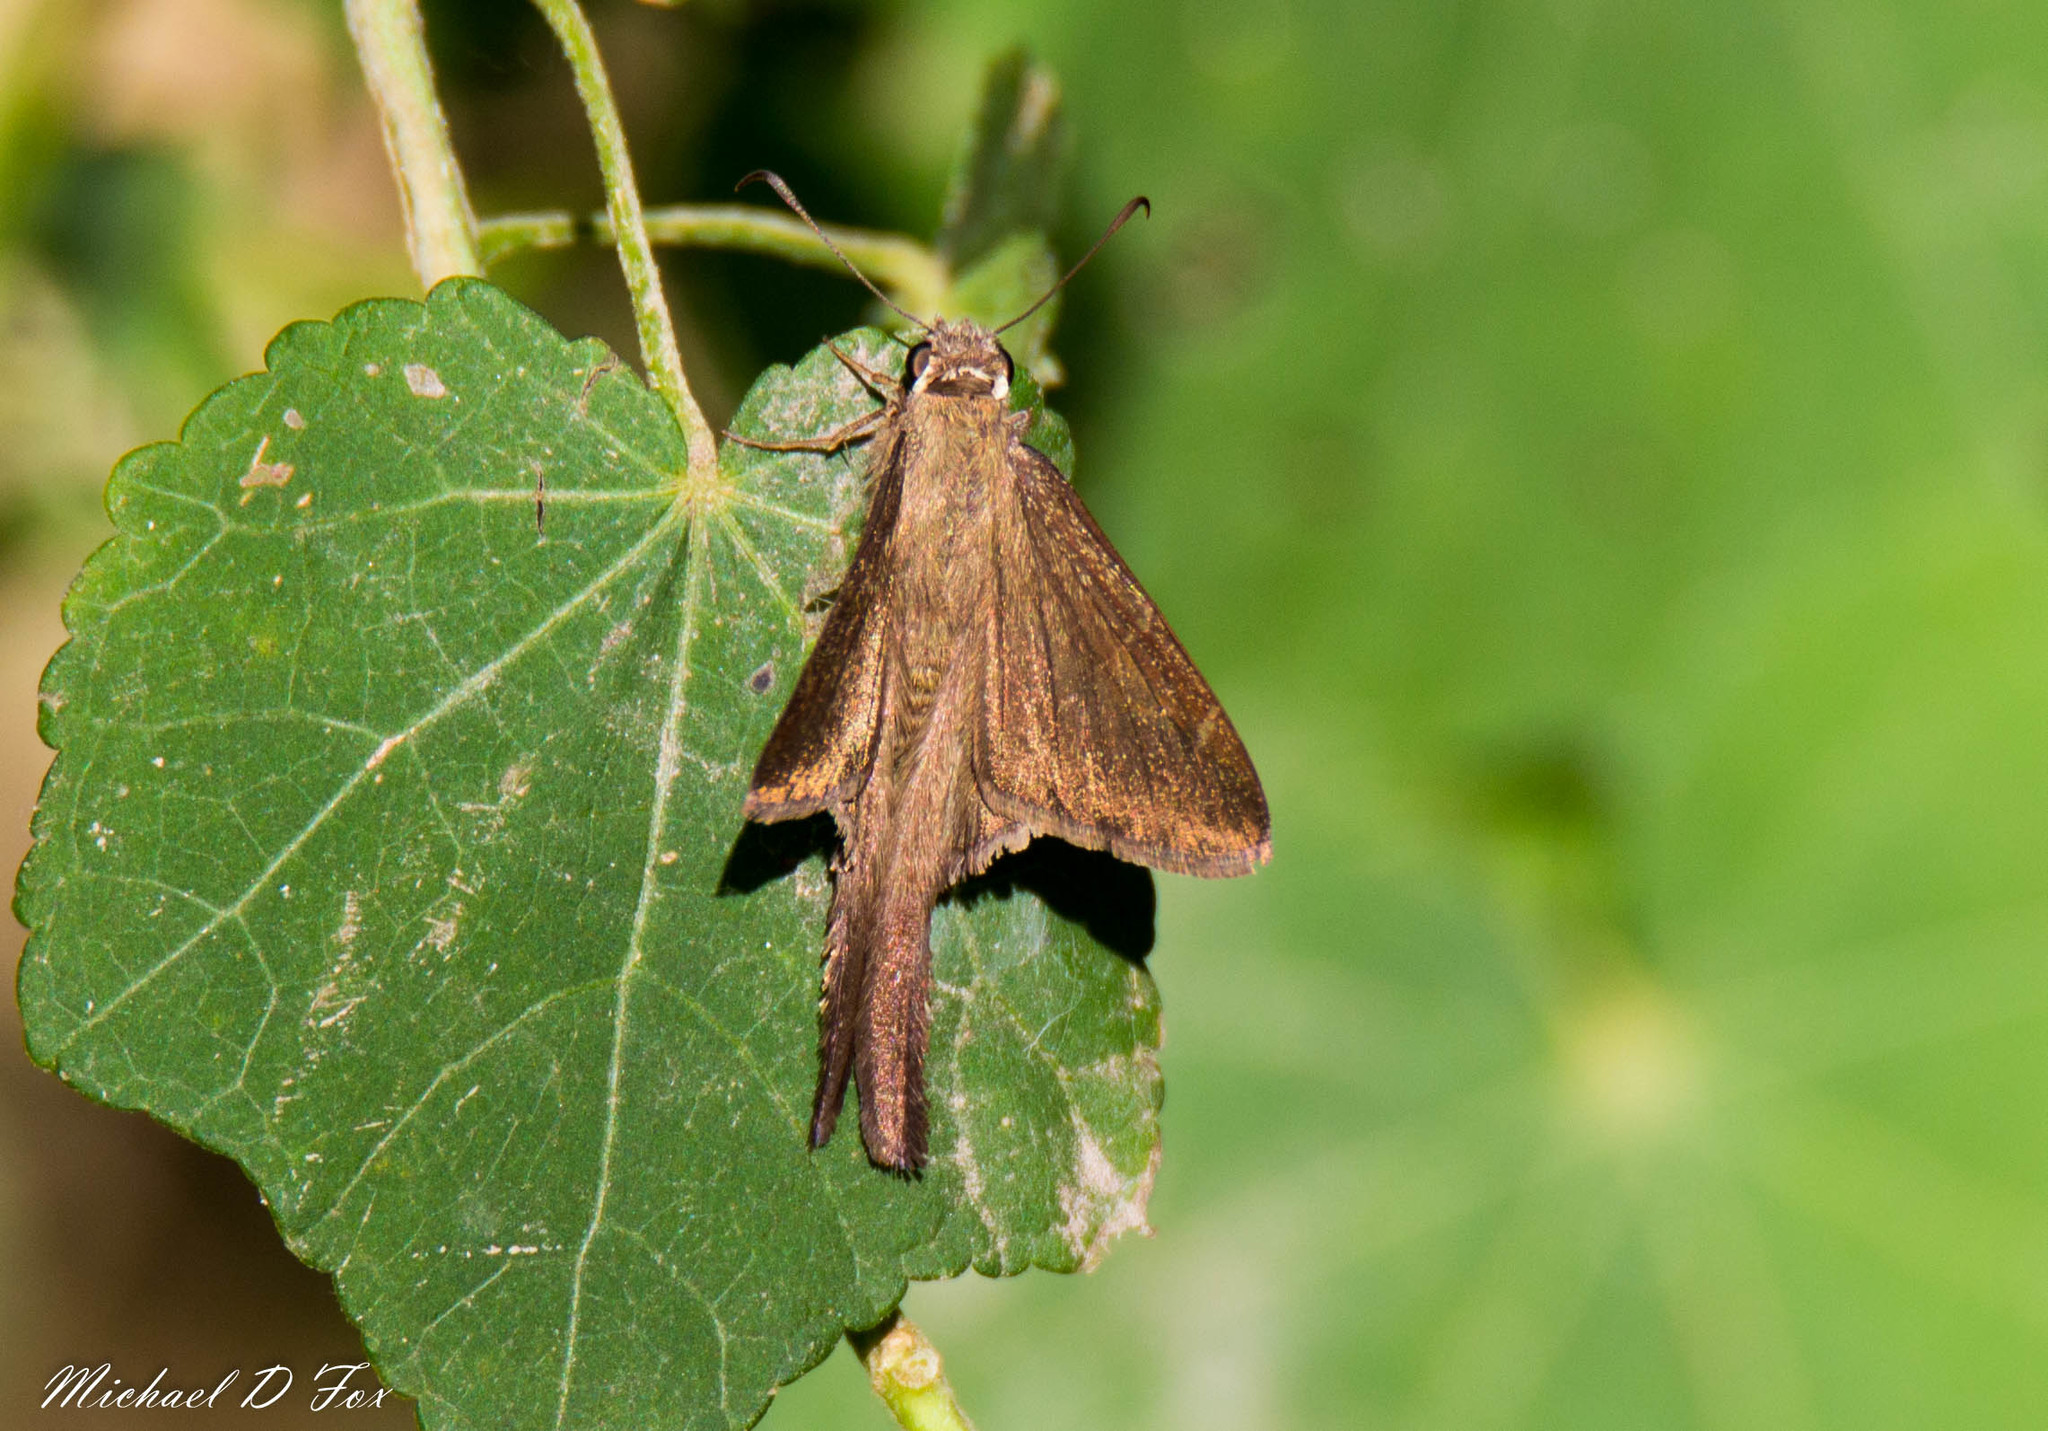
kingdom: Animalia
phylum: Arthropoda
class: Insecta
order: Lepidoptera
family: Hesperiidae
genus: Urbanus
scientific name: Urbanus procne
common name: Brown longtail
